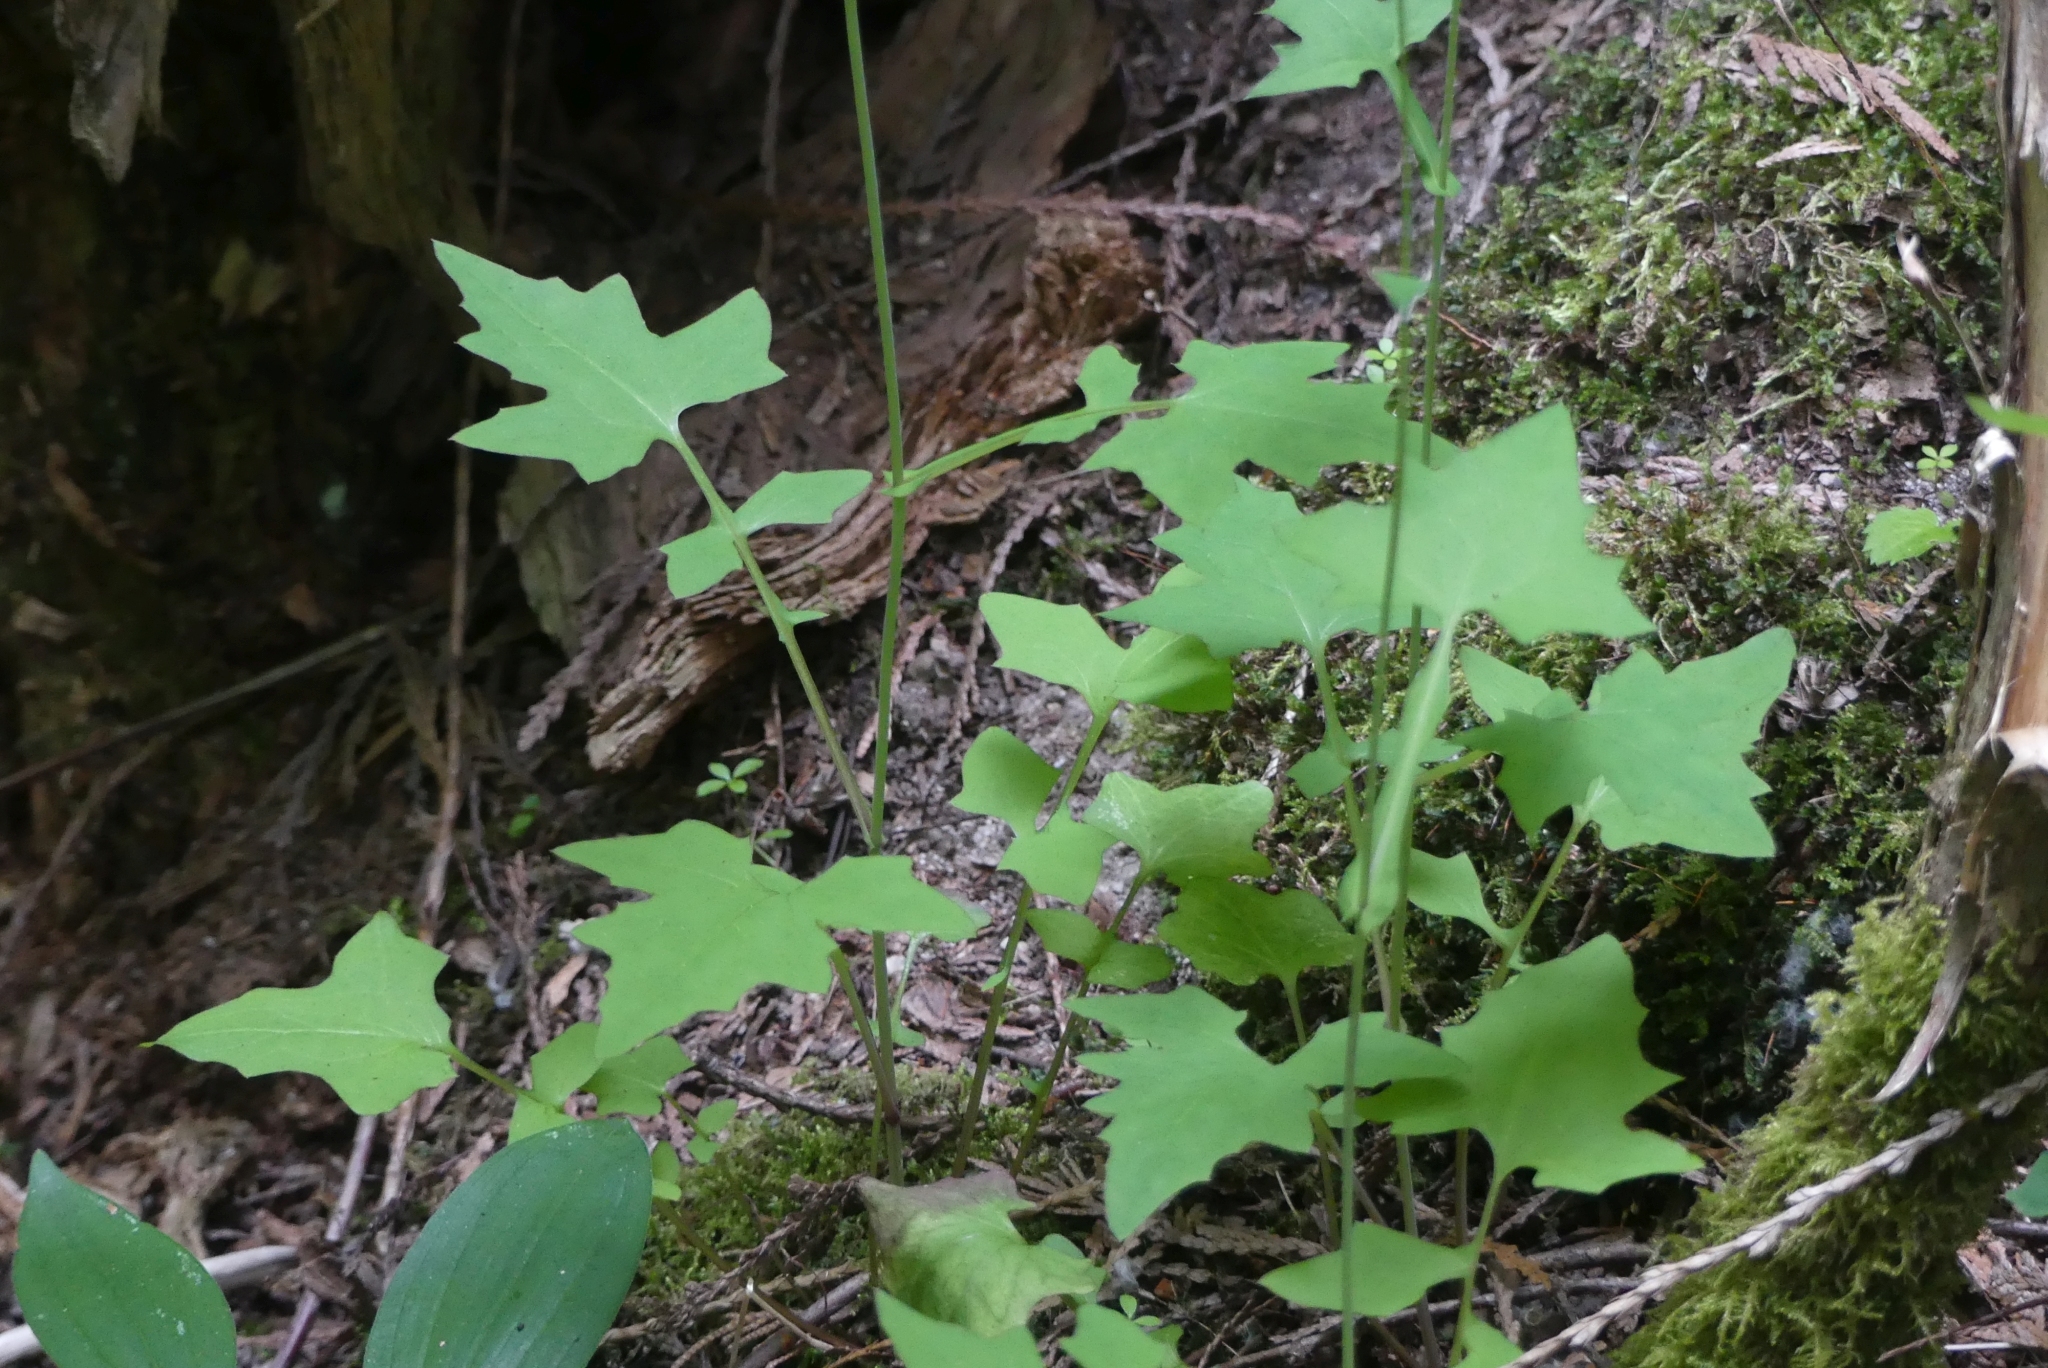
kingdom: Plantae
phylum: Tracheophyta
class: Magnoliopsida
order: Asterales
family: Asteraceae
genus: Mycelis
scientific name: Mycelis muralis
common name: Wall lettuce
